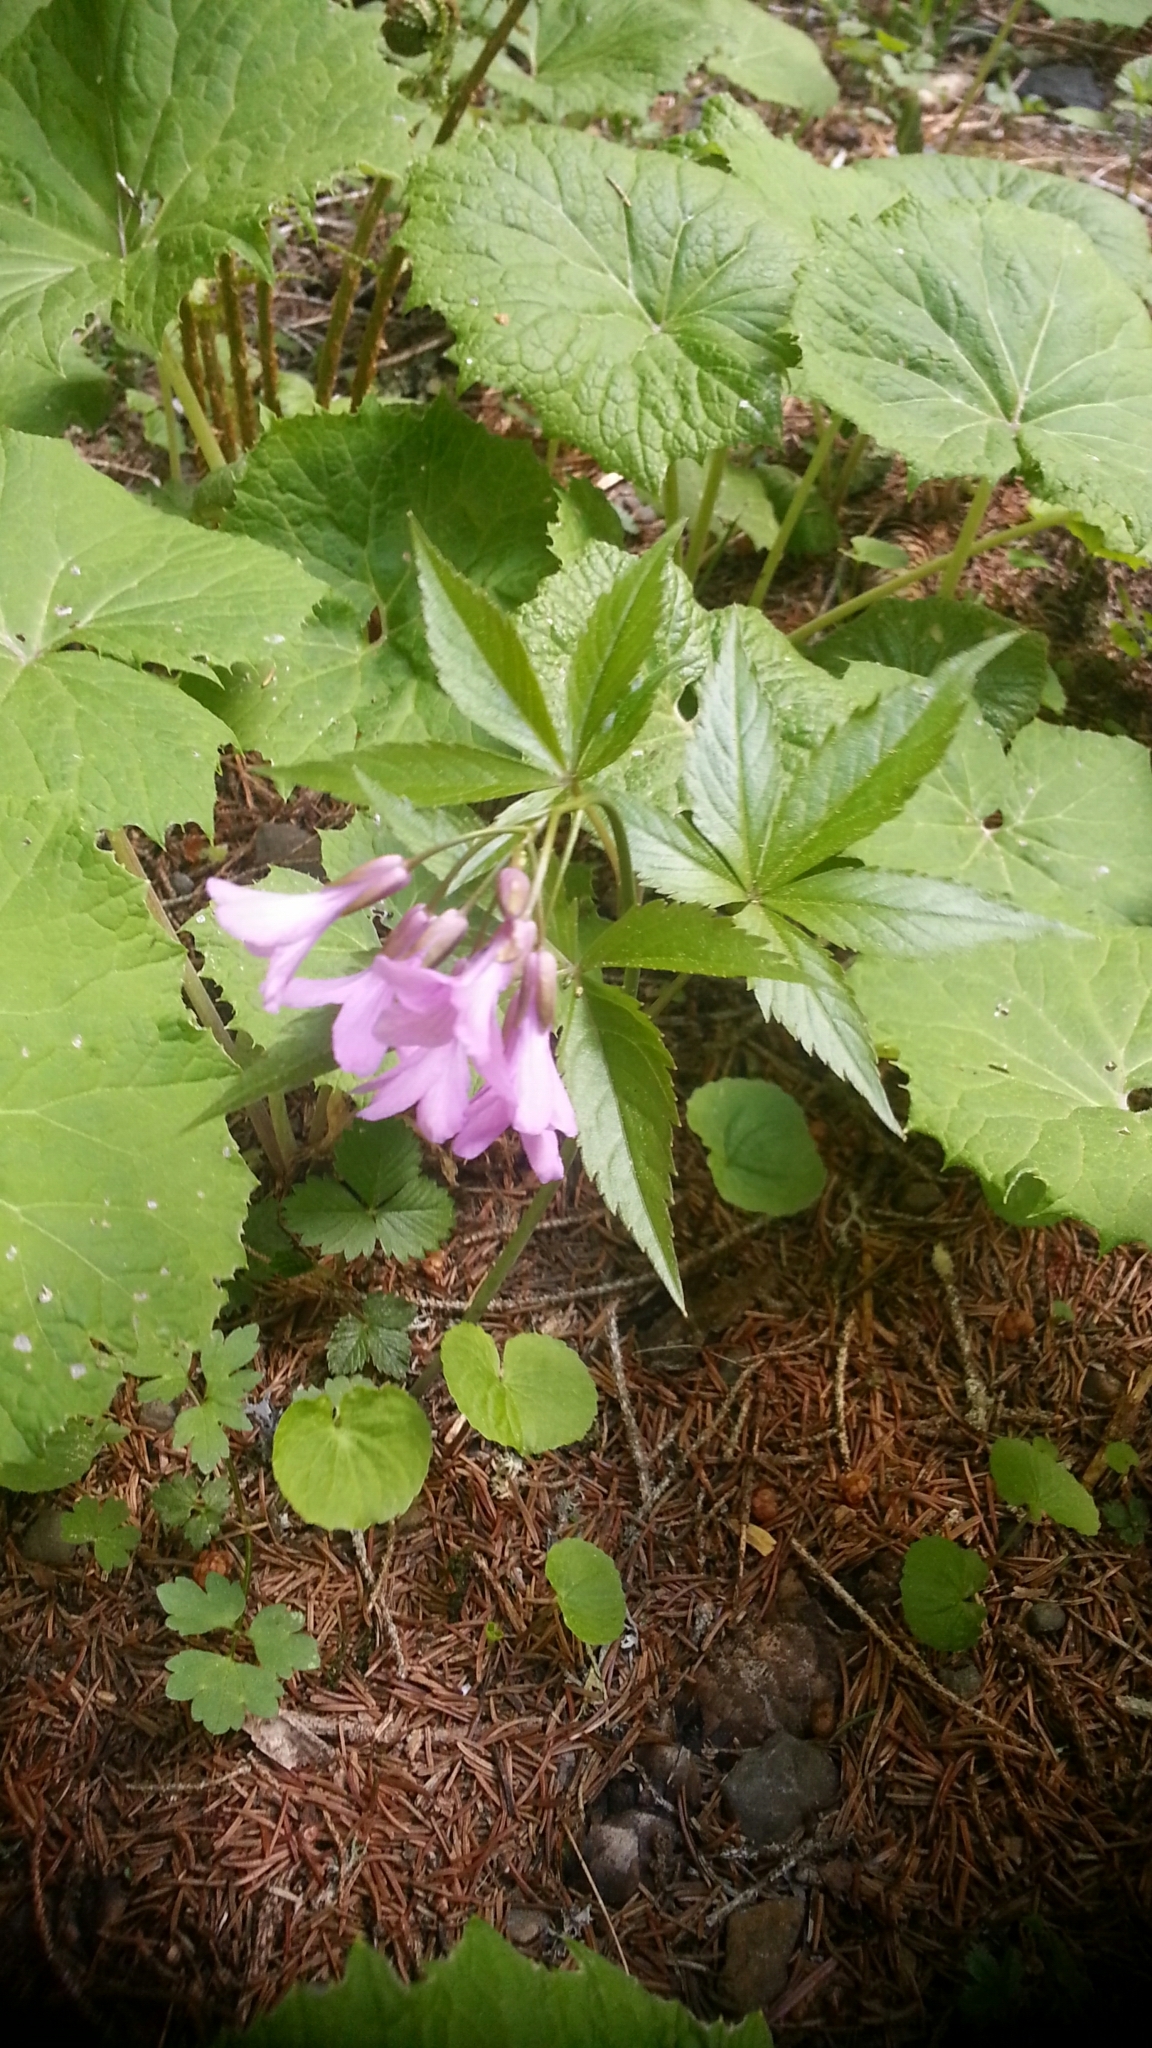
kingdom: Plantae
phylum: Tracheophyta
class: Magnoliopsida
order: Brassicales
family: Brassicaceae
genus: Cardamine
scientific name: Cardamine pentaphyllos
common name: Five-leaflet bitter-cress
